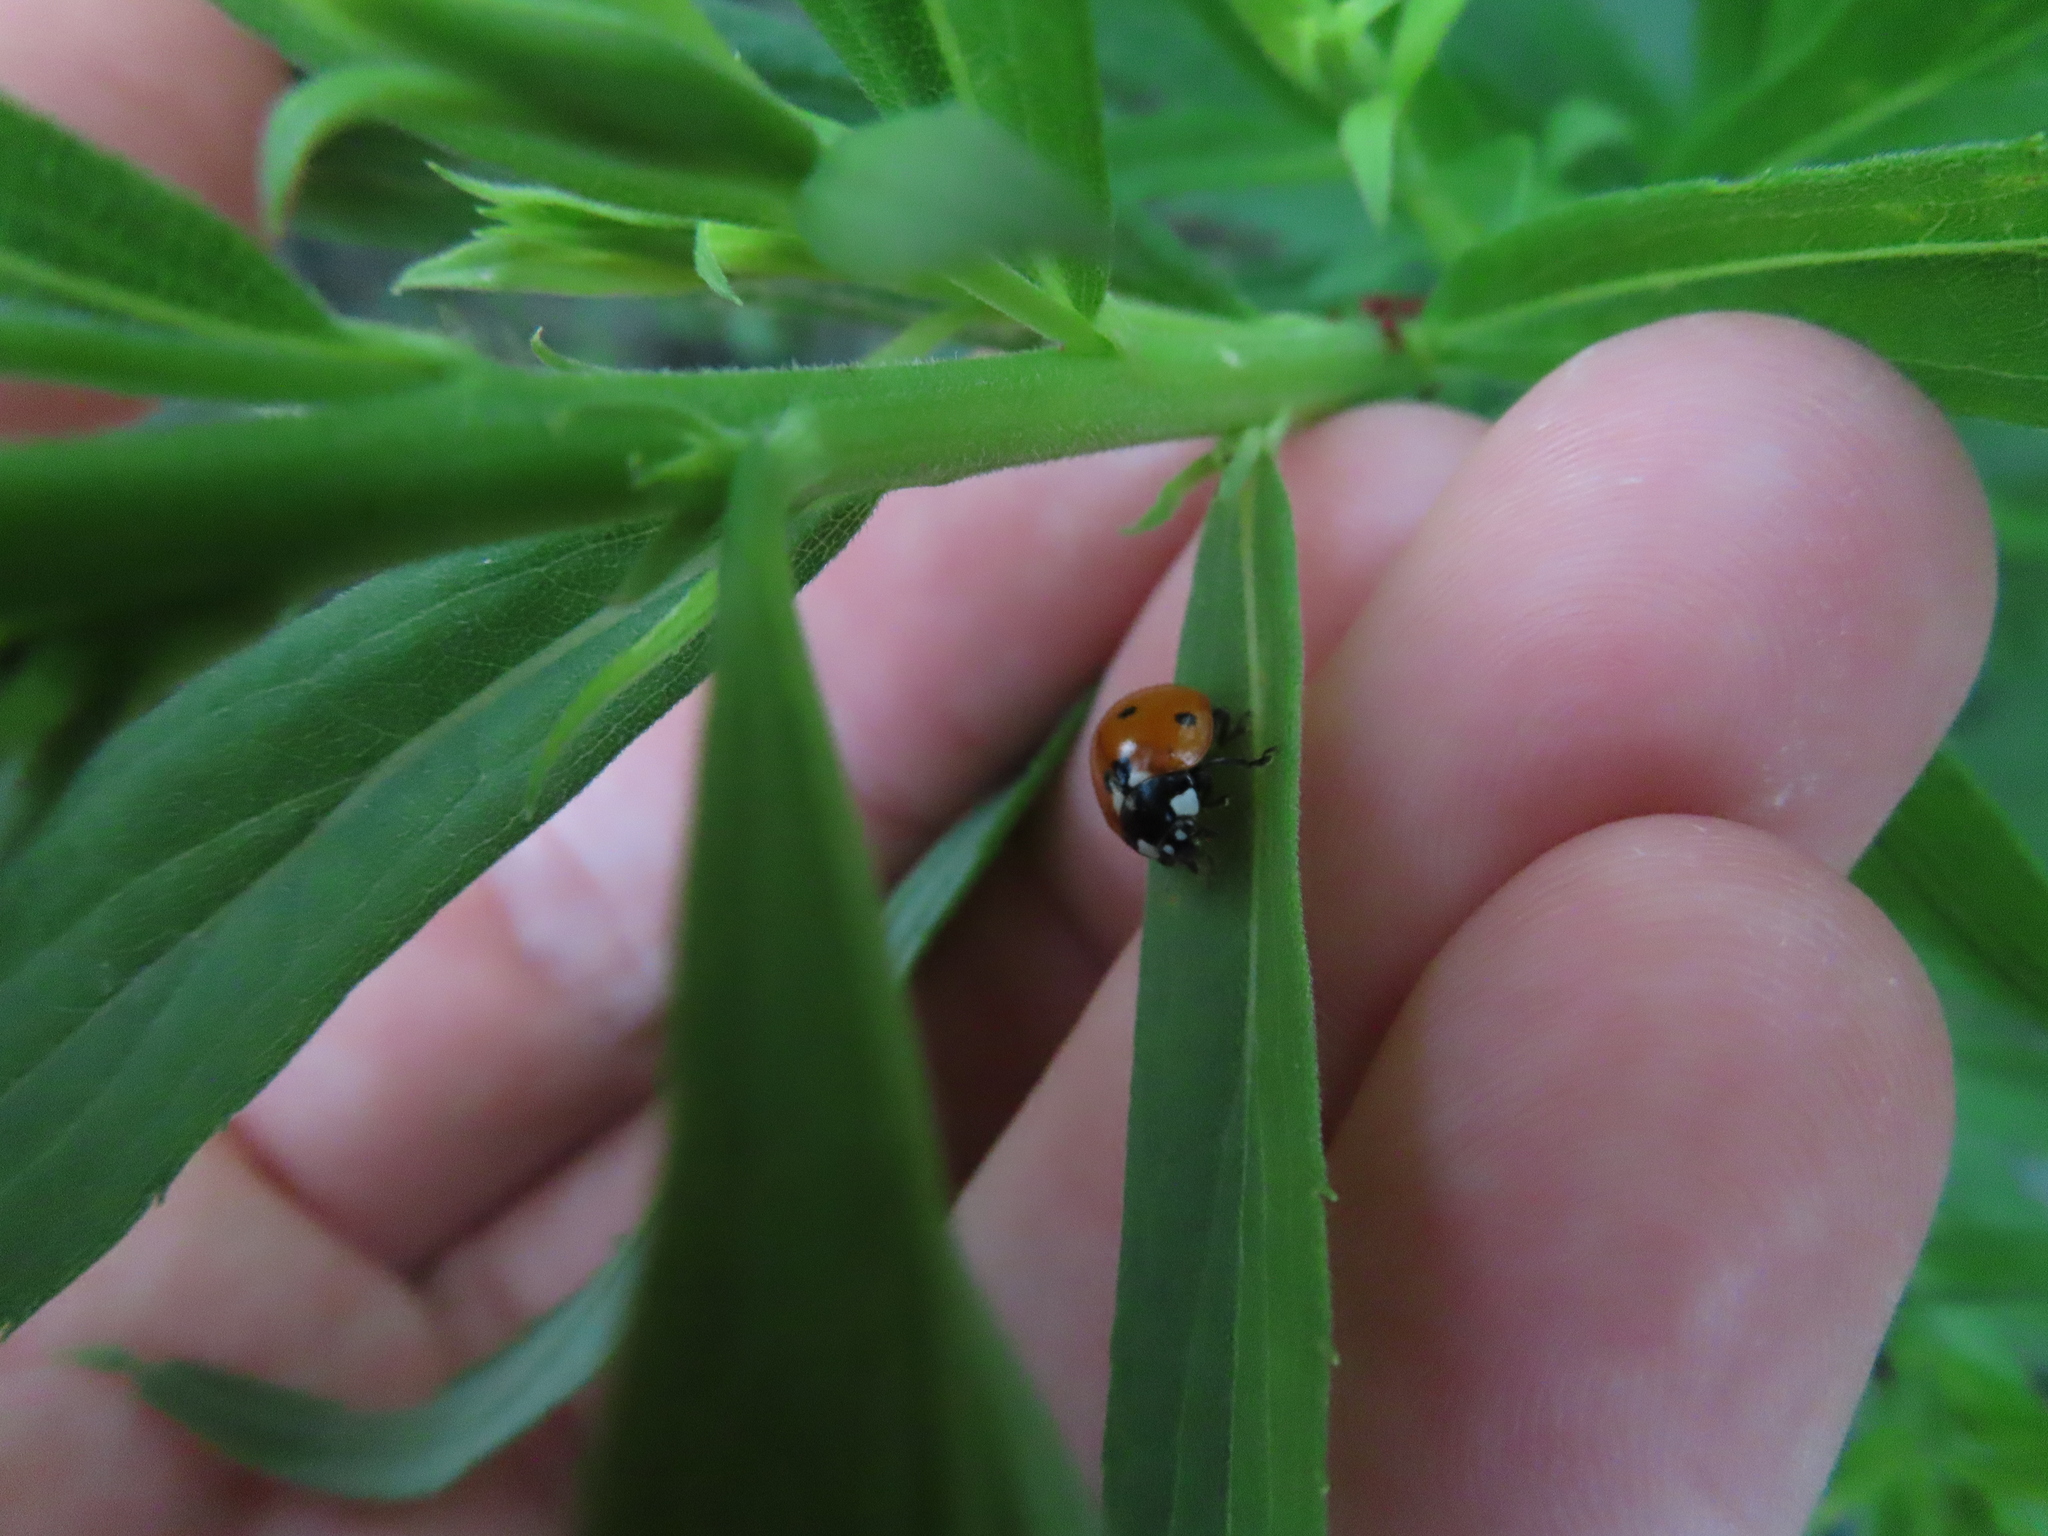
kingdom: Animalia
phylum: Arthropoda
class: Insecta
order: Coleoptera
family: Coccinellidae
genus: Coccinella
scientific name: Coccinella septempunctata
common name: Sevenspotted lady beetle
